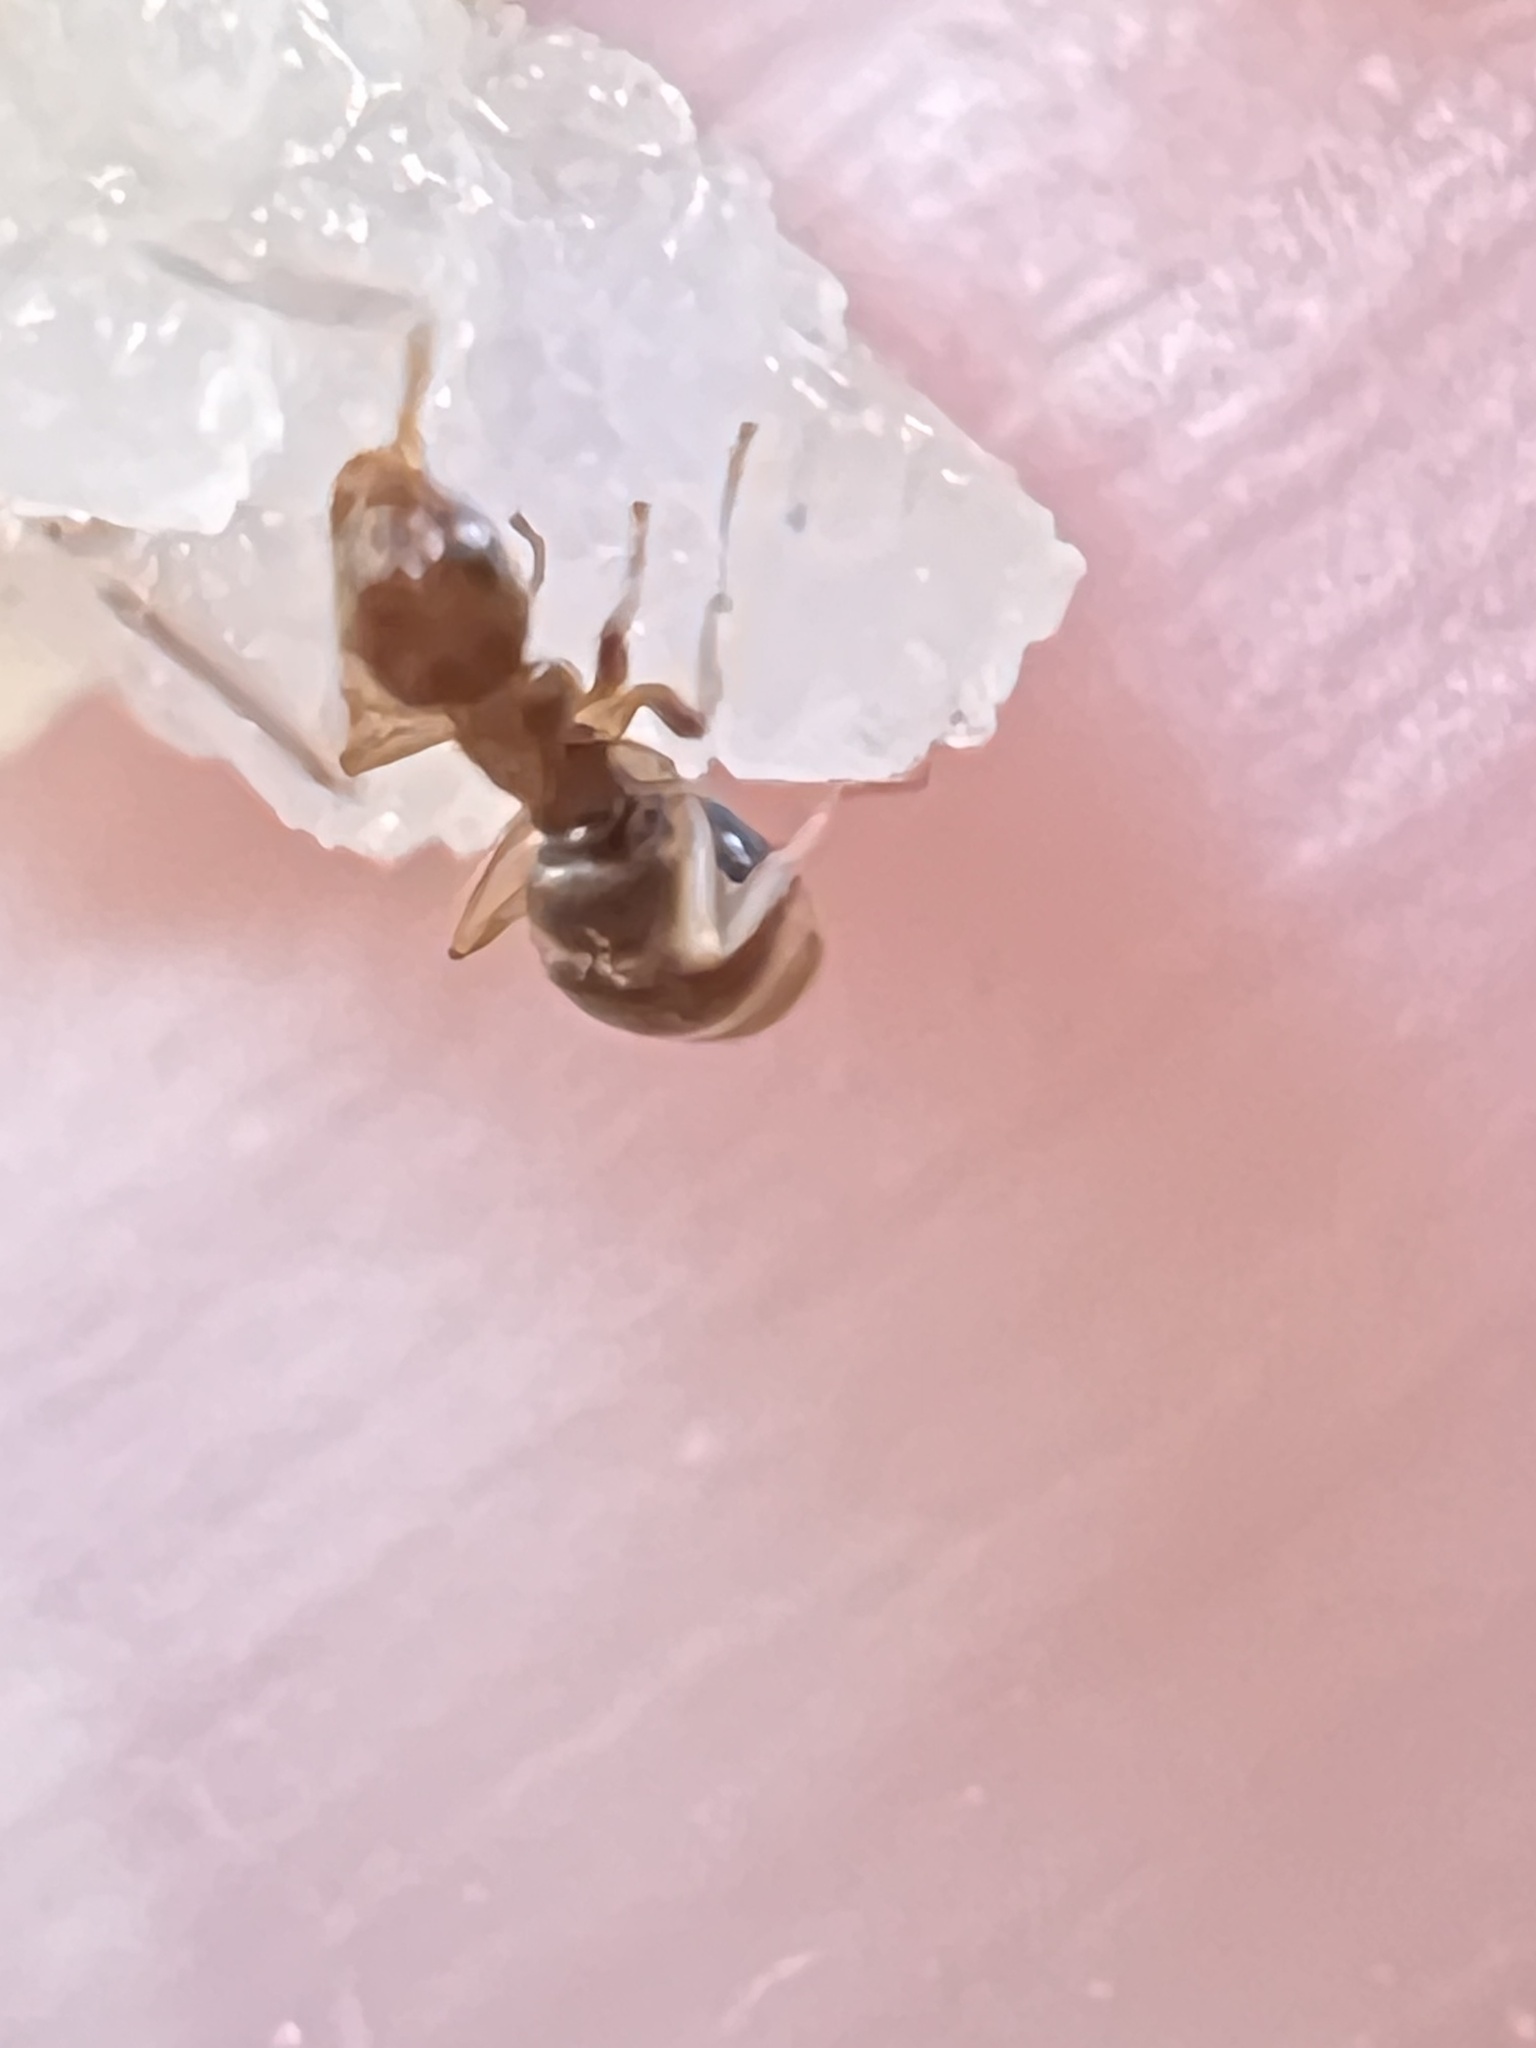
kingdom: Animalia
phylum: Arthropoda
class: Insecta
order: Hymenoptera
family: Formicidae
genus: Prolasius
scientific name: Prolasius advenus
